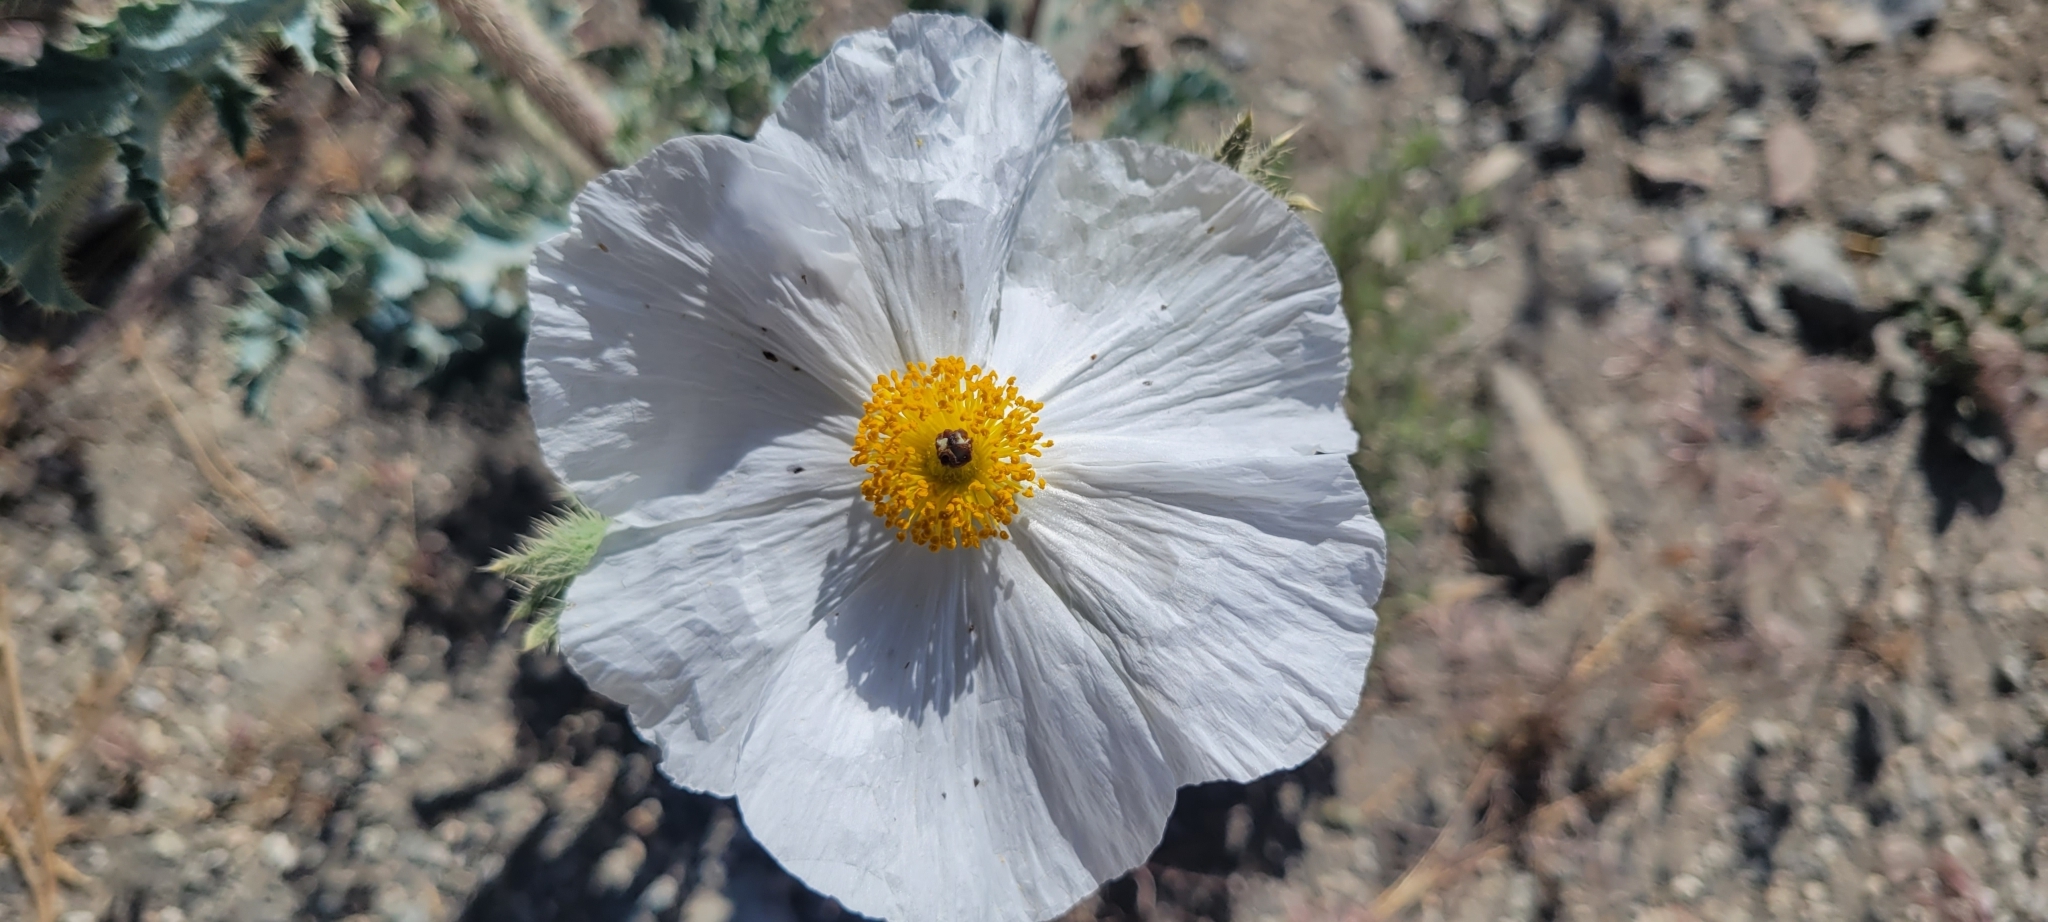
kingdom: Plantae
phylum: Tracheophyta
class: Magnoliopsida
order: Ranunculales
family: Papaveraceae
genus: Argemone
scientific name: Argemone munita
